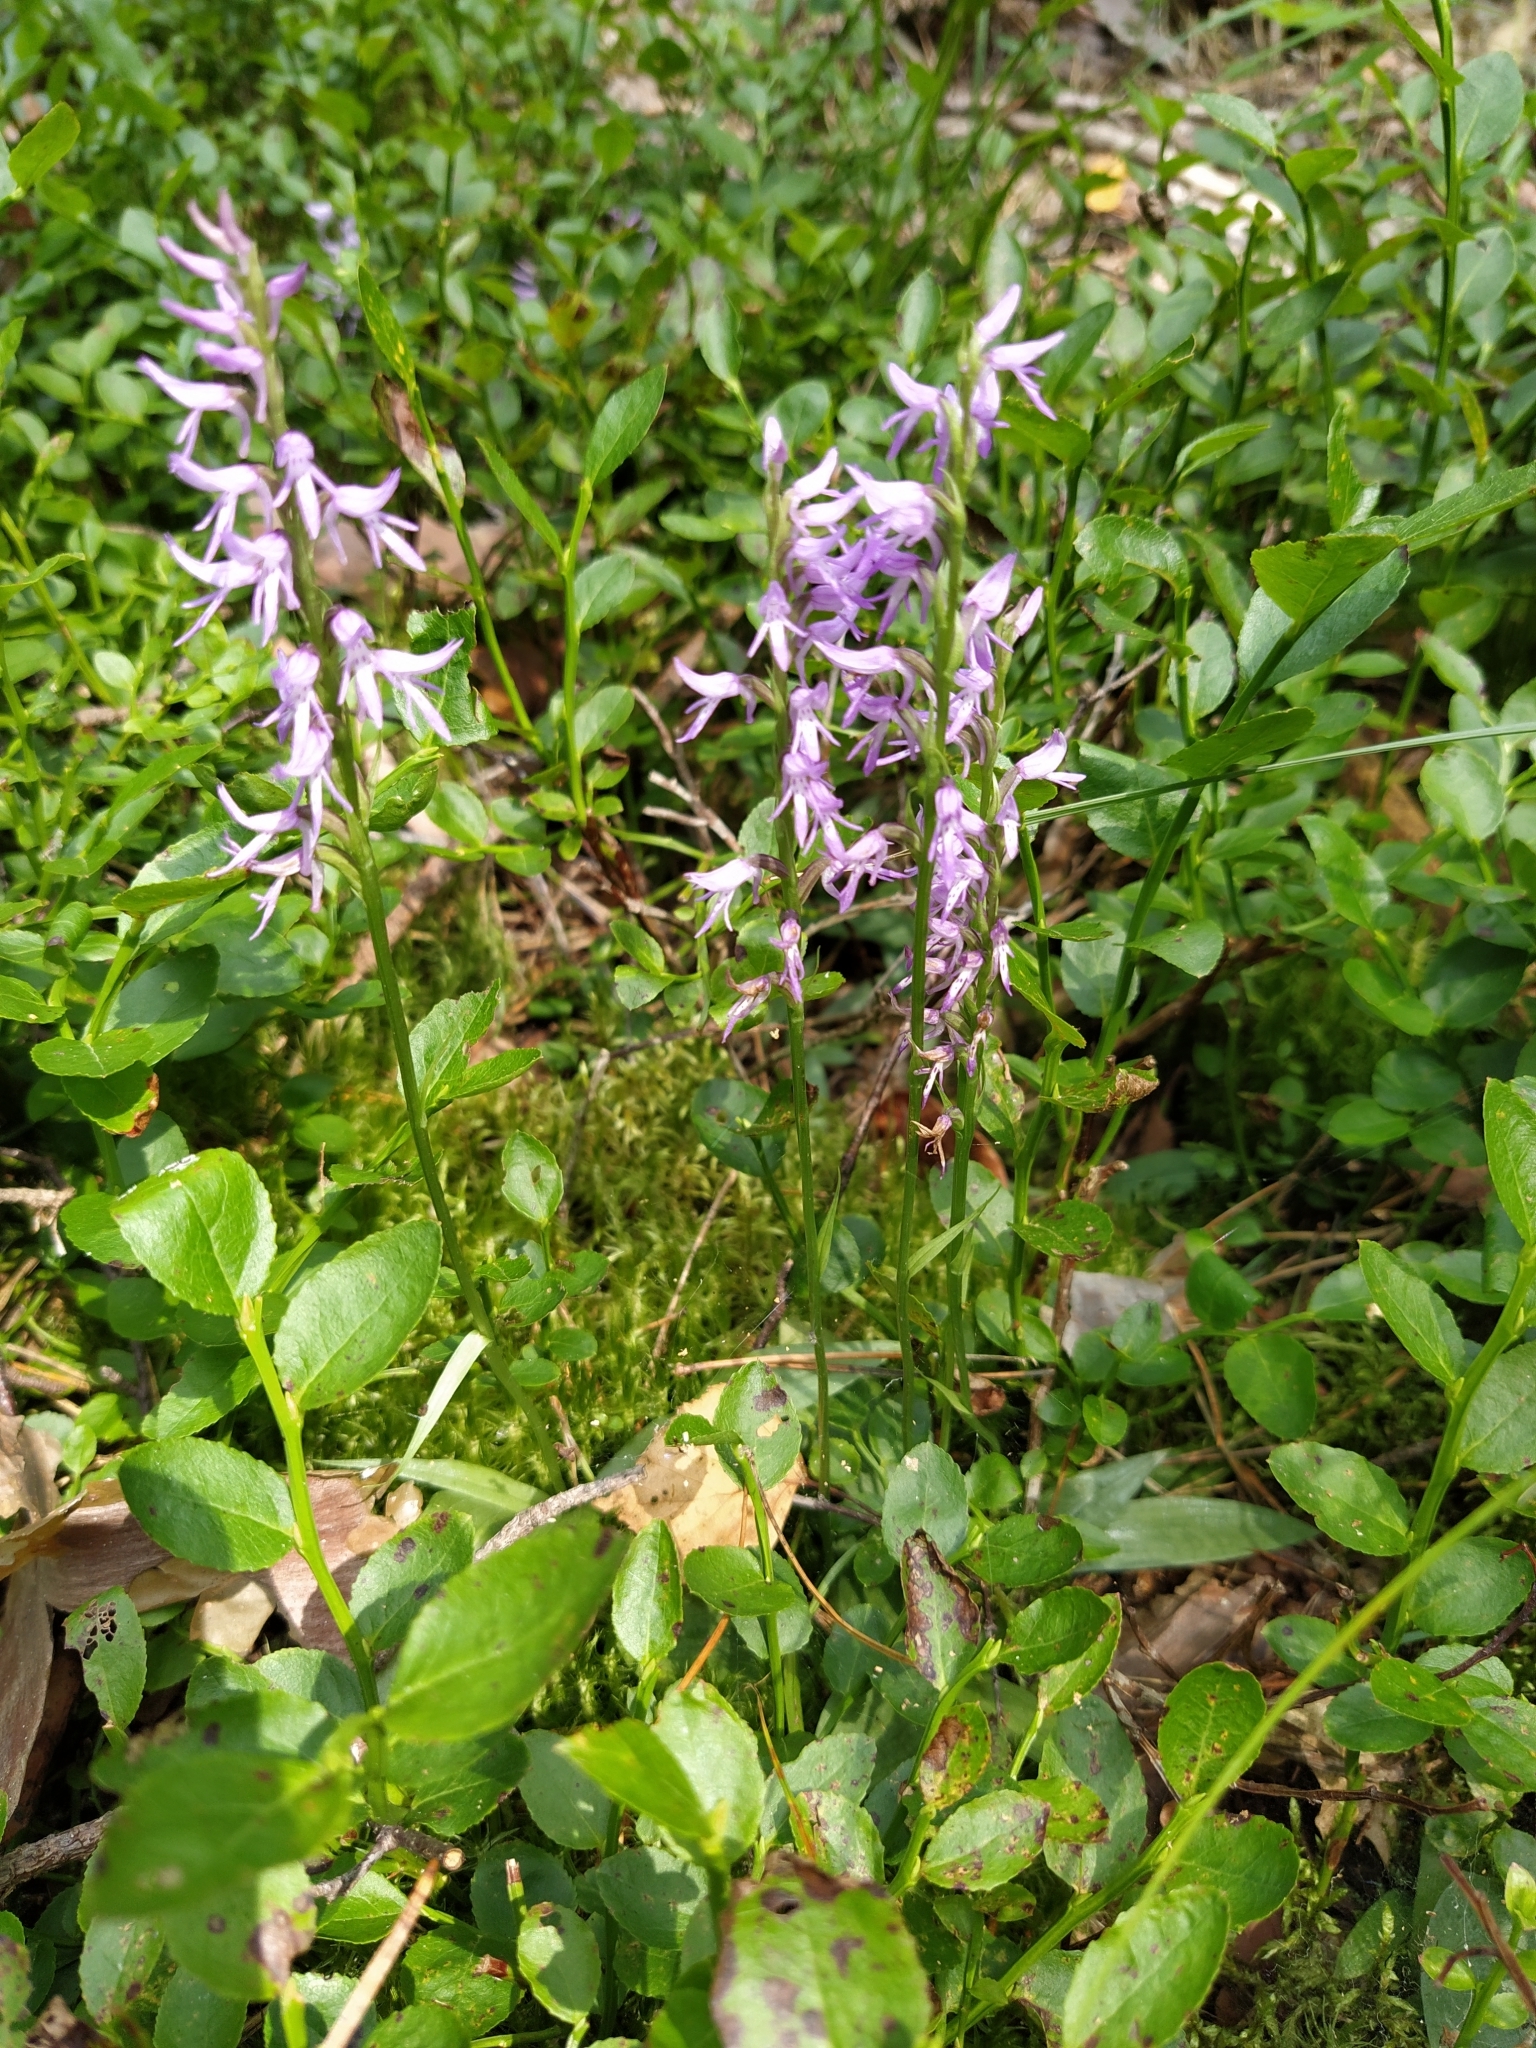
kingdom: Plantae
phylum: Tracheophyta
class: Liliopsida
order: Asparagales
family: Orchidaceae
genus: Hemipilia
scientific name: Hemipilia cucullata
